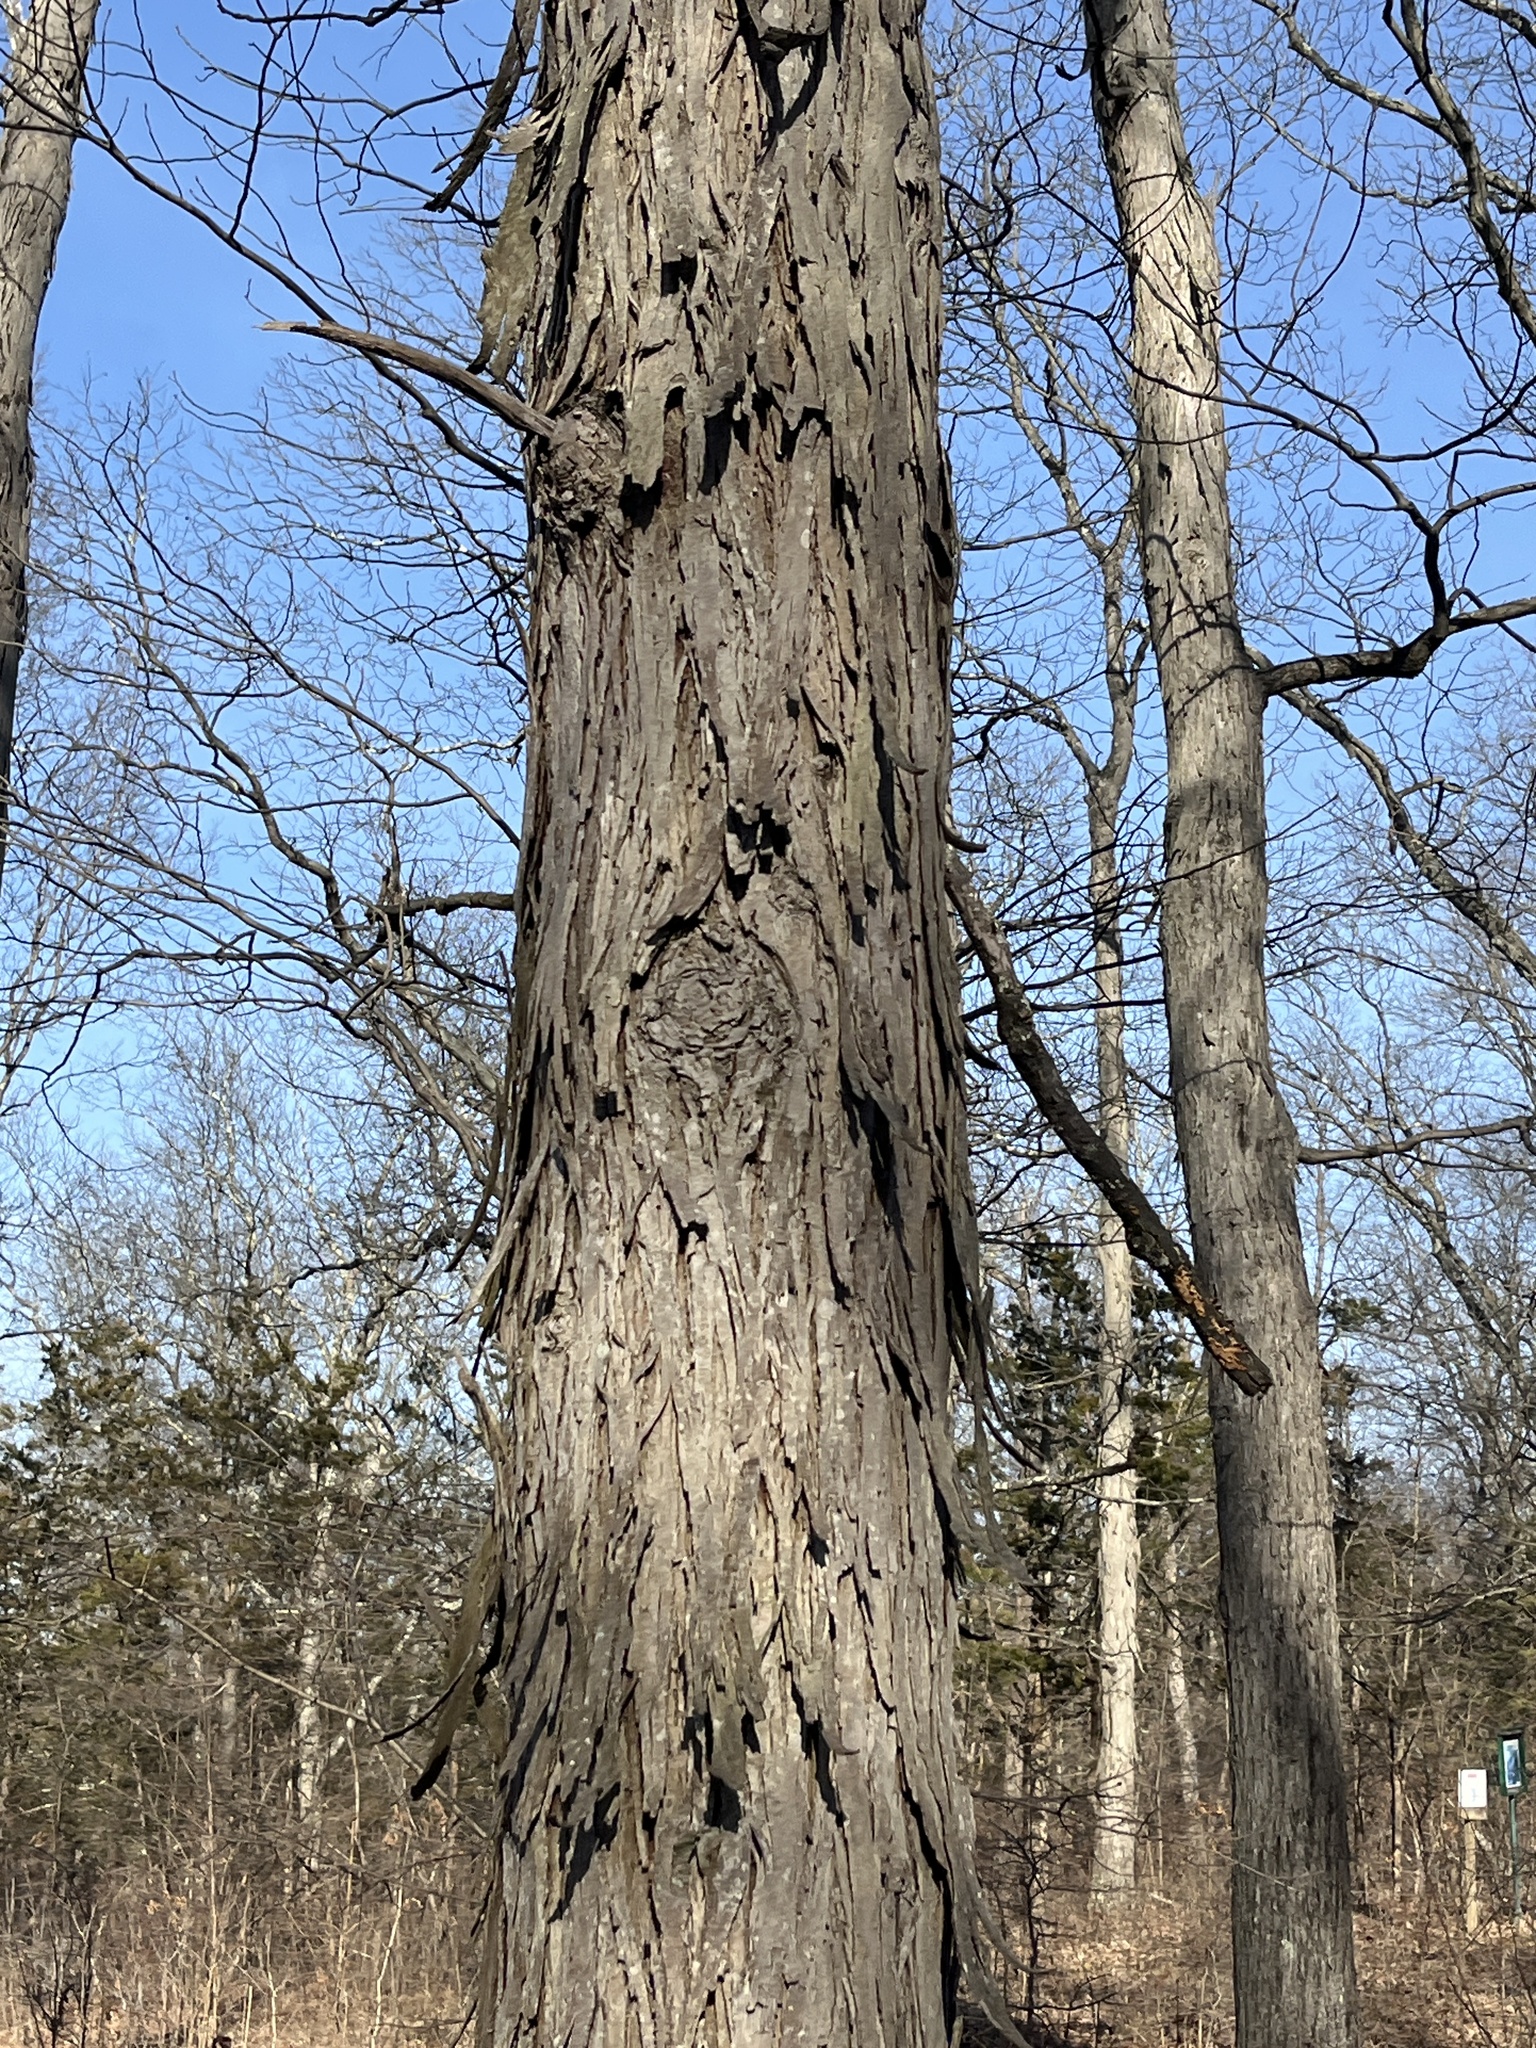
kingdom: Plantae
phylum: Tracheophyta
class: Magnoliopsida
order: Fagales
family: Juglandaceae
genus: Carya
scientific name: Carya ovata
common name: Shagbark hickory
